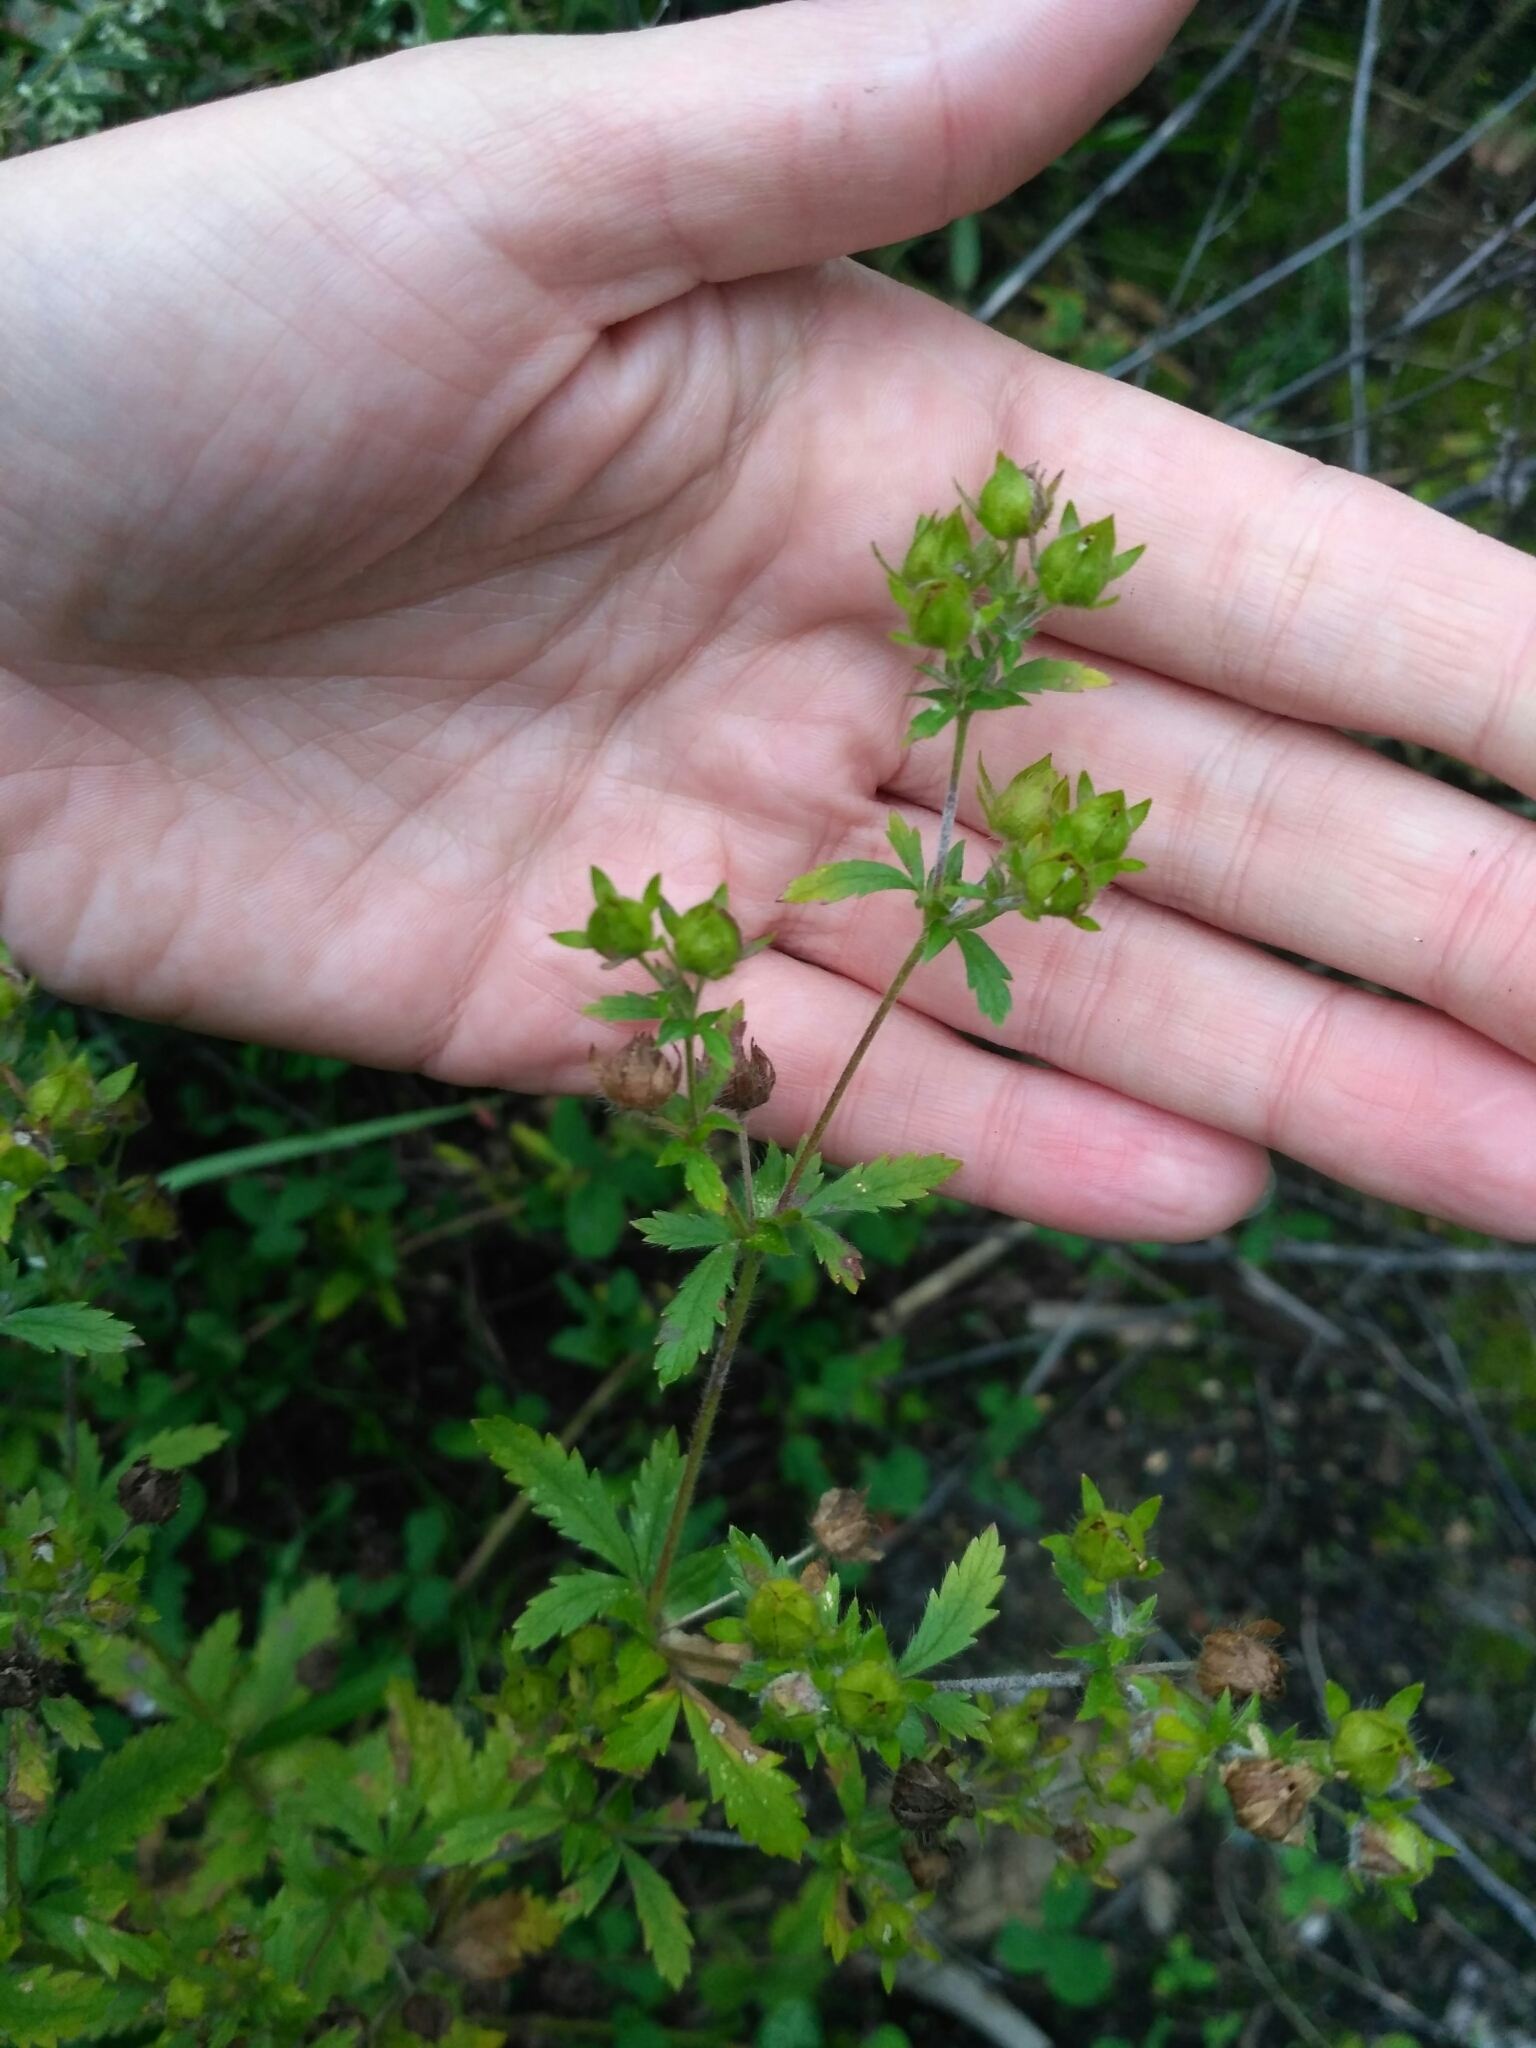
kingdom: Plantae
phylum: Tracheophyta
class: Magnoliopsida
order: Rosales
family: Rosaceae
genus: Potentilla
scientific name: Potentilla norvegica
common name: Ternate-leaved cinquefoil
